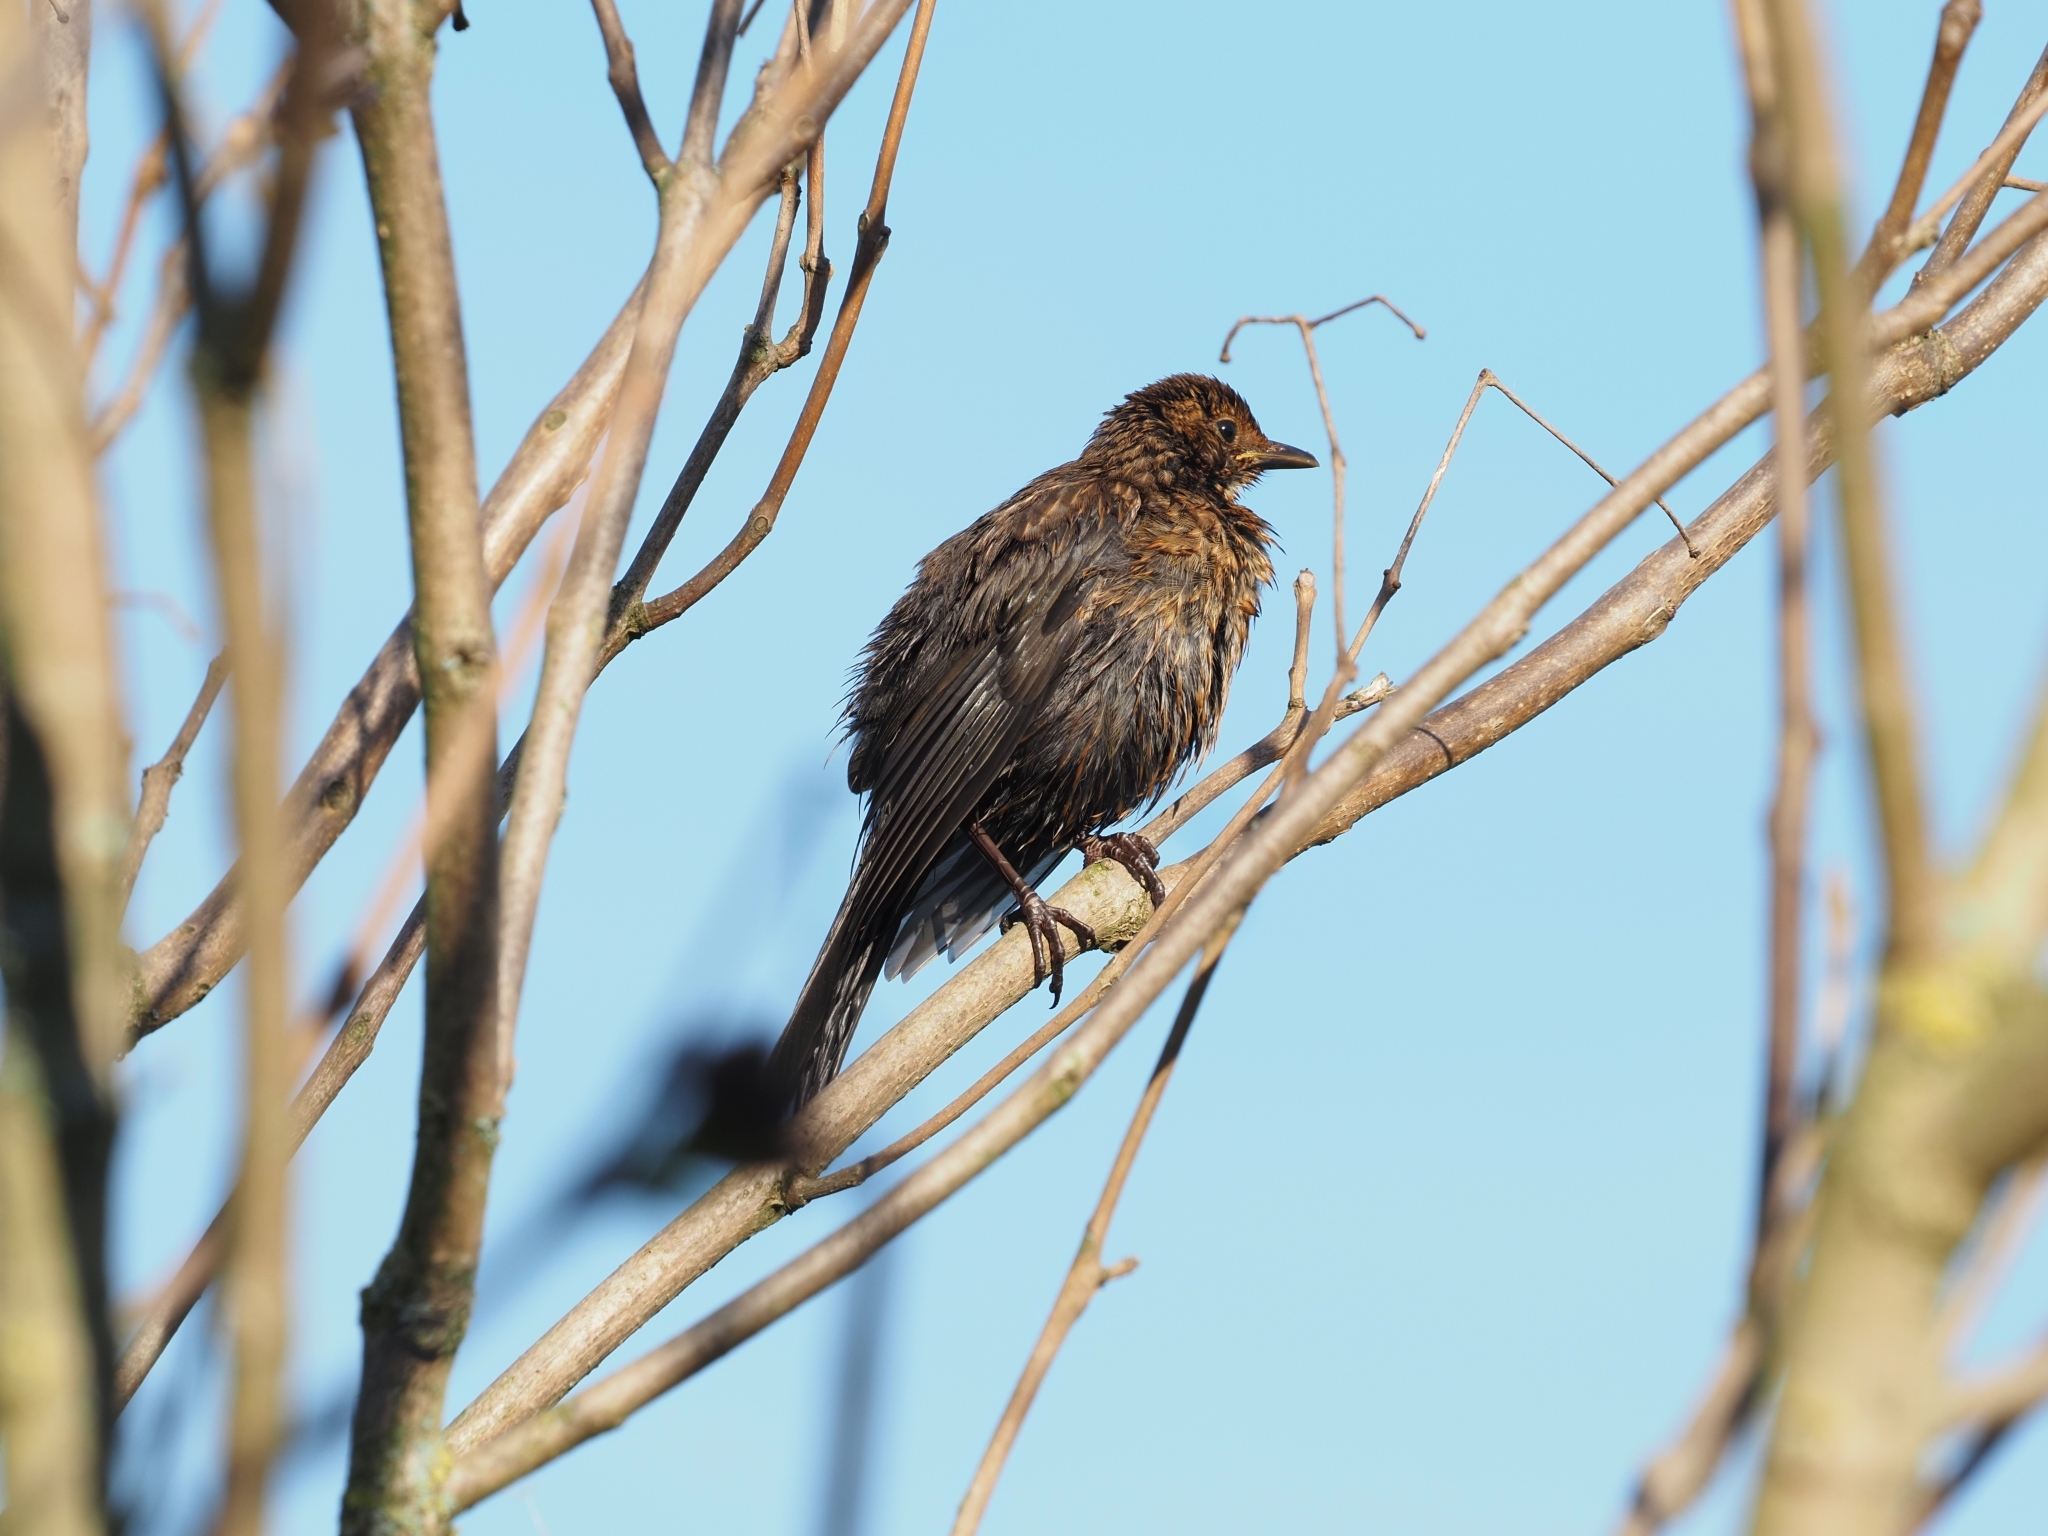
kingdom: Animalia
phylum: Chordata
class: Aves
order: Passeriformes
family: Turdidae
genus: Turdus
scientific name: Turdus merula
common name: Common blackbird
